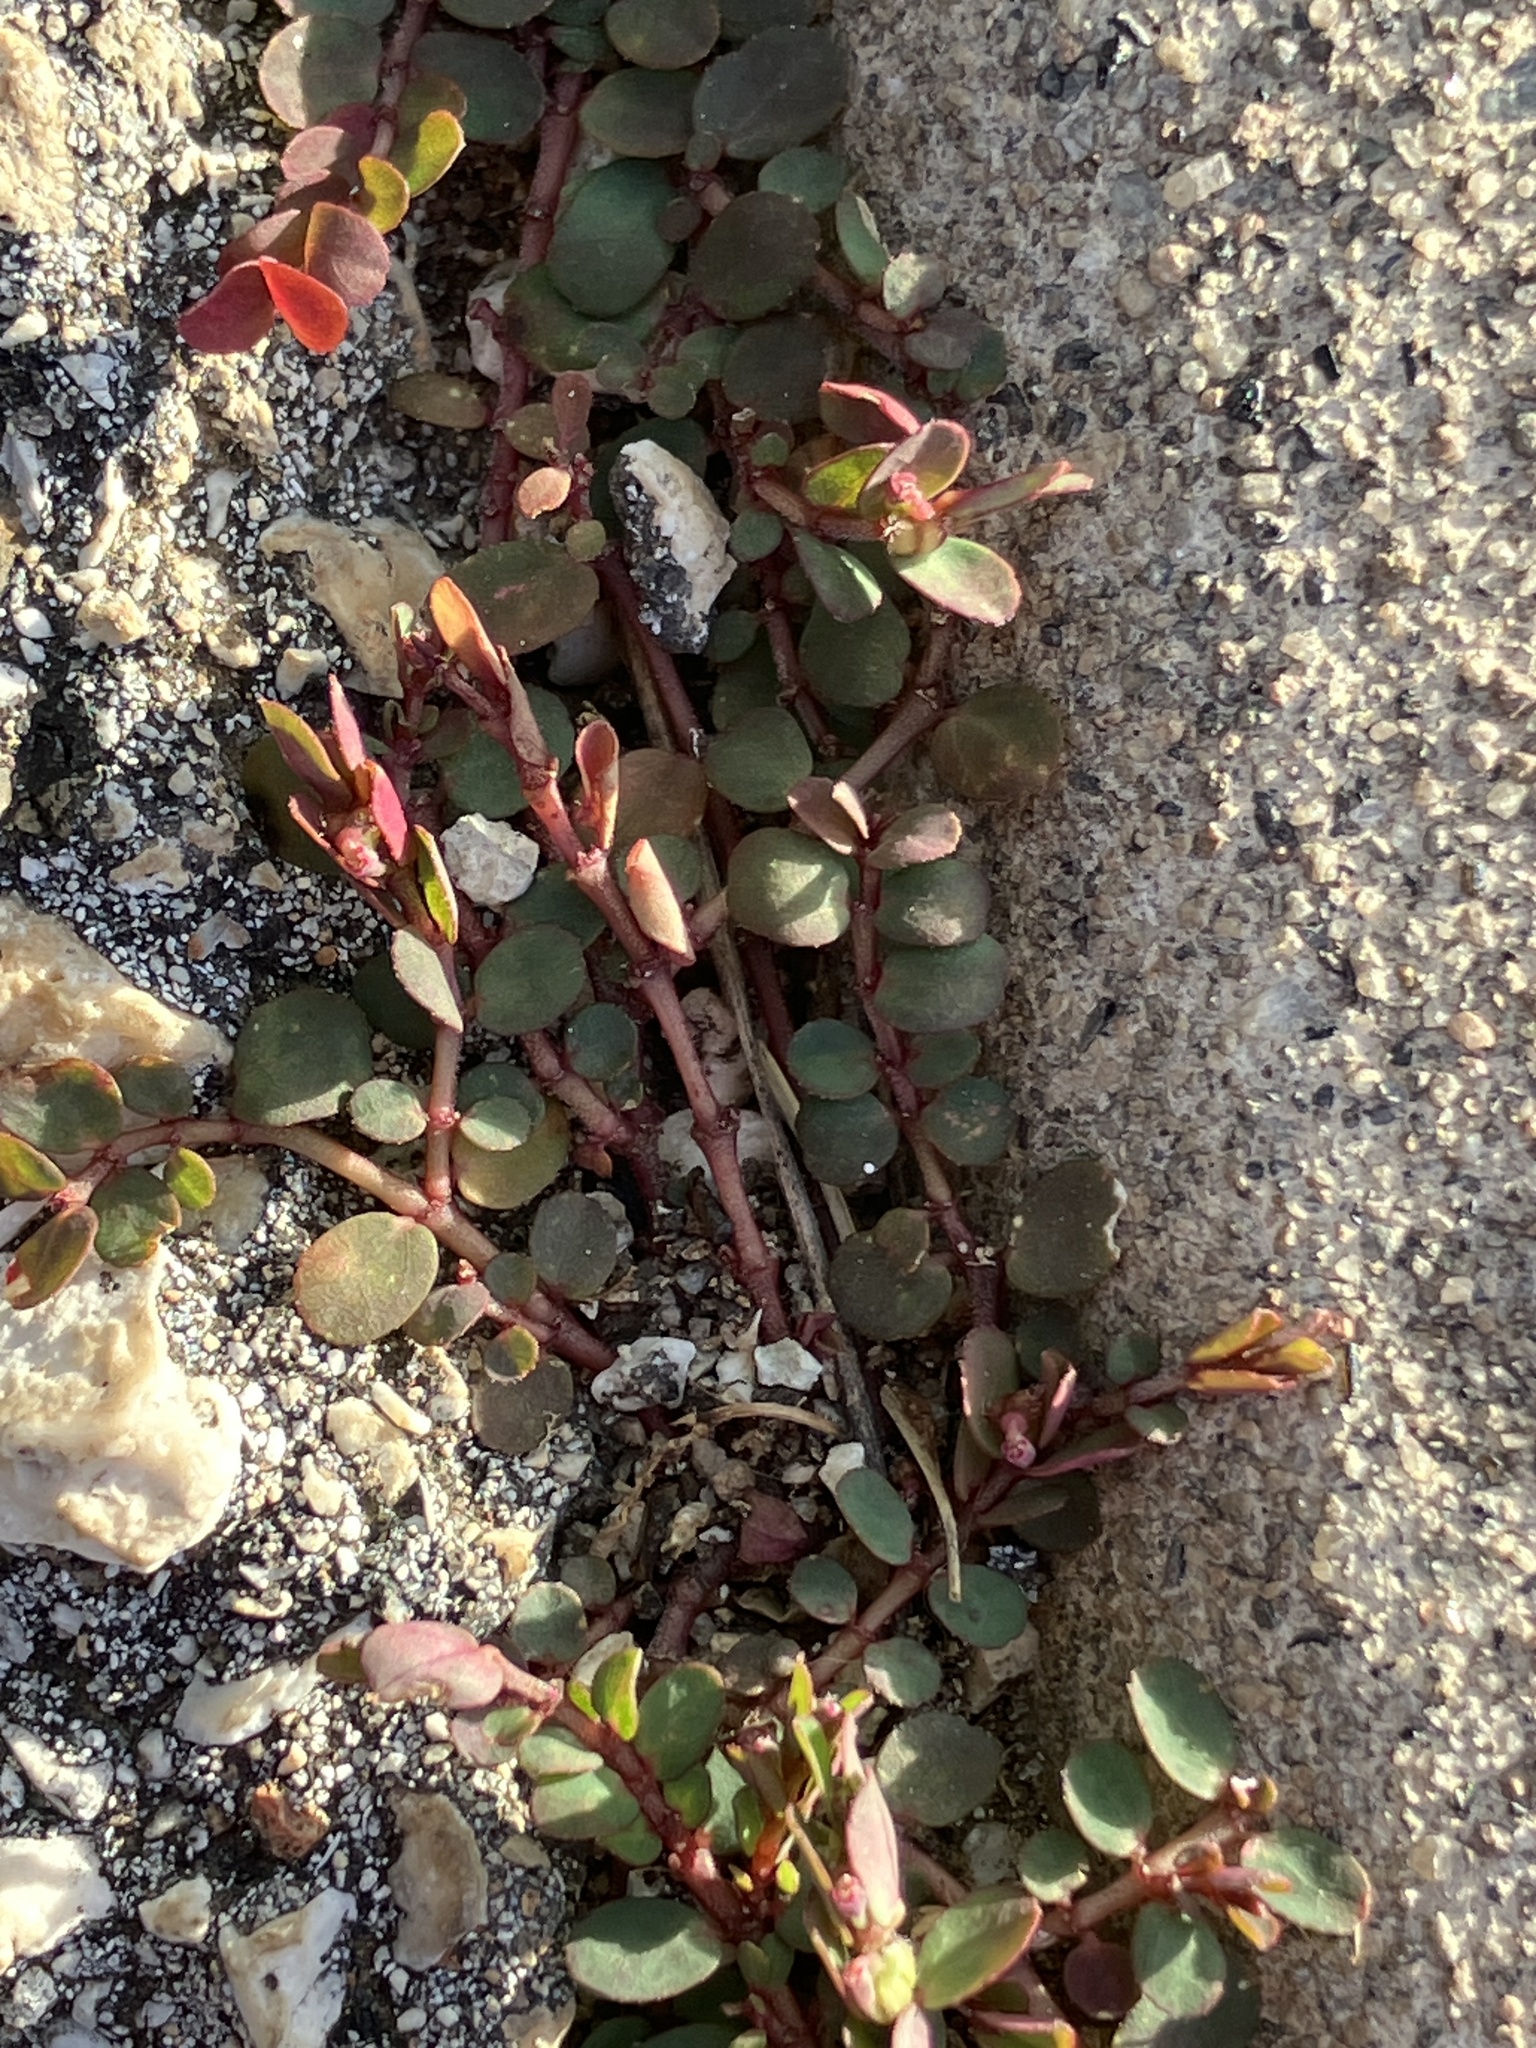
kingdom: Plantae
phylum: Tracheophyta
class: Magnoliopsida
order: Malpighiales
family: Euphorbiaceae
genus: Euphorbia
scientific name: Euphorbia prostrata
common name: Prostrate sandmat
